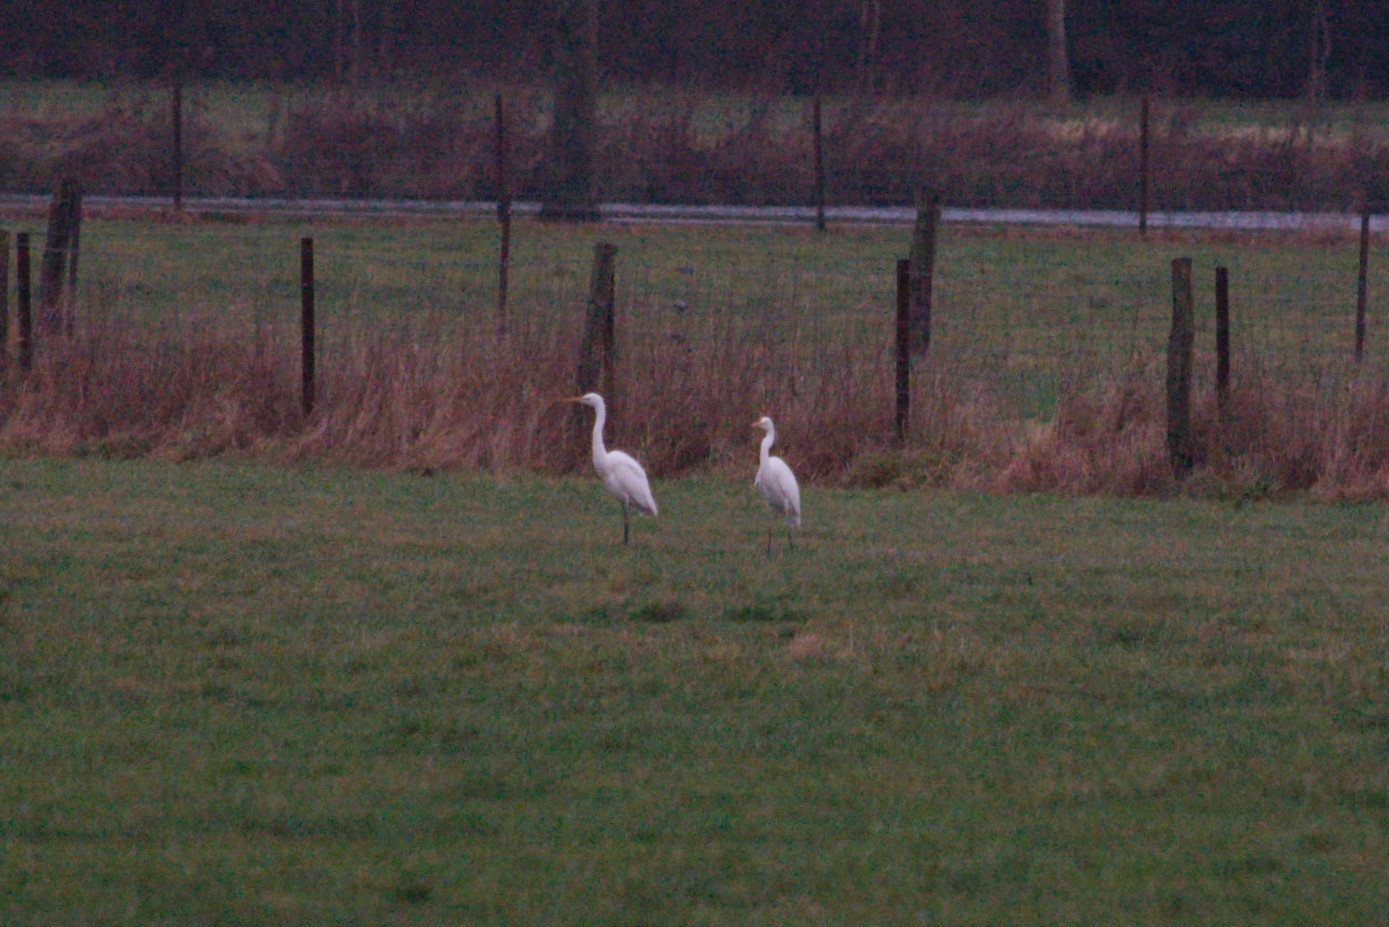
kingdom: Animalia
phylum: Chordata
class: Aves
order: Pelecaniformes
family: Ardeidae
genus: Ardea
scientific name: Ardea alba
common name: Great egret
